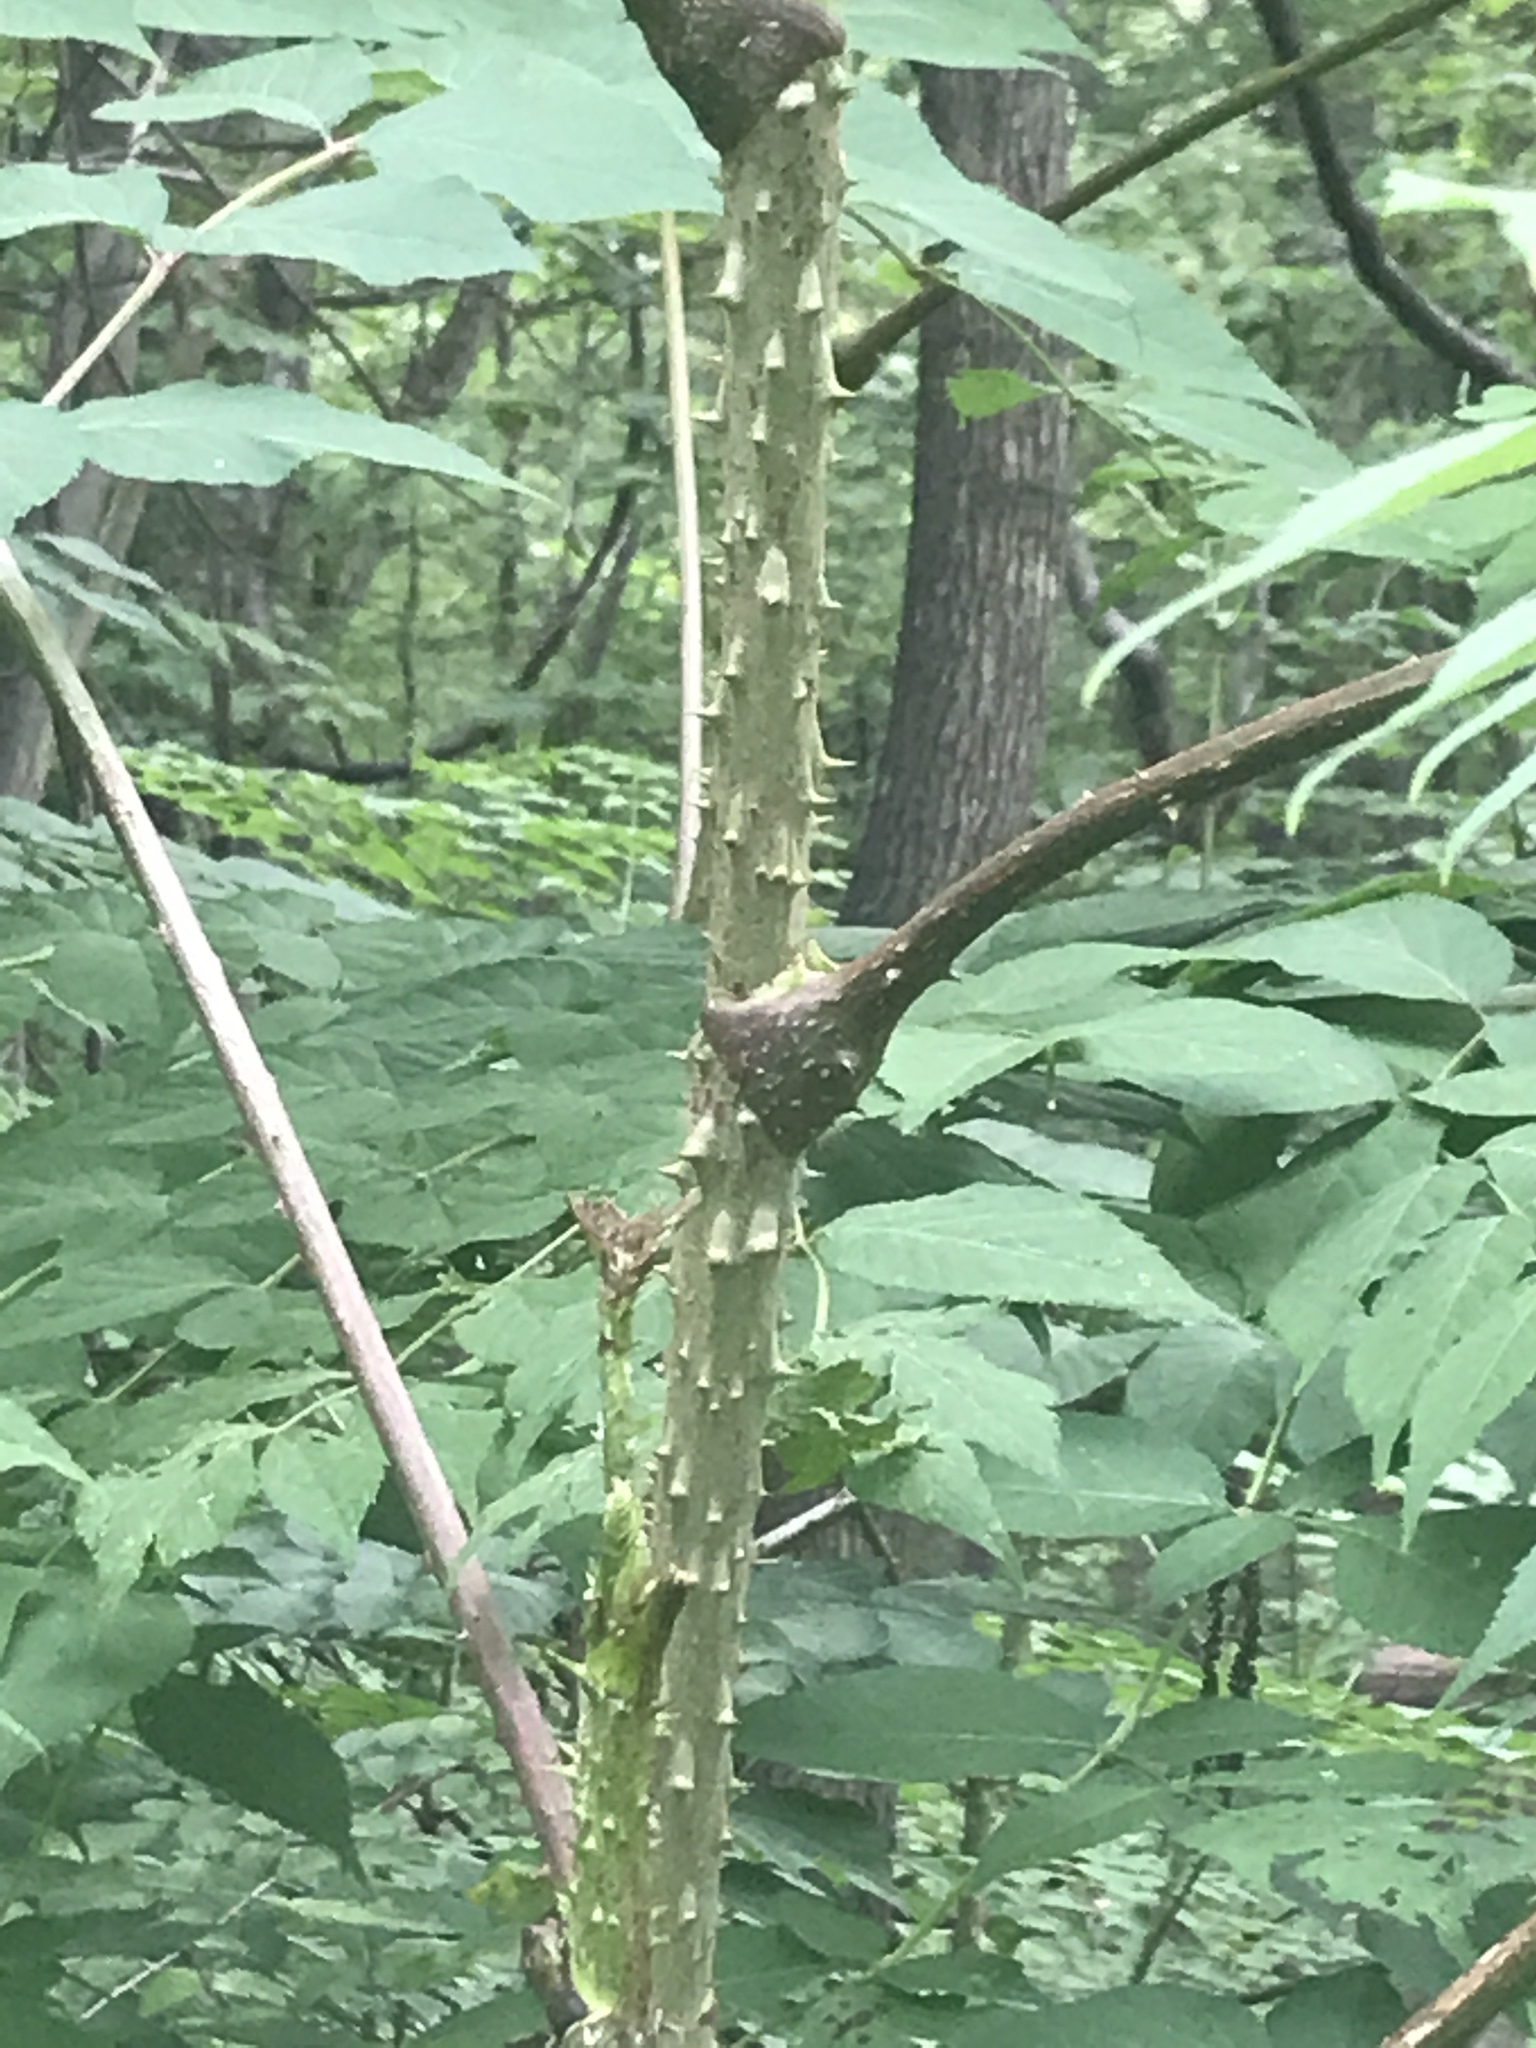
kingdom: Plantae
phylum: Tracheophyta
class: Magnoliopsida
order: Apiales
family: Araliaceae
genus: Aralia
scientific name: Aralia elata
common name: Japanese angelica-tree
